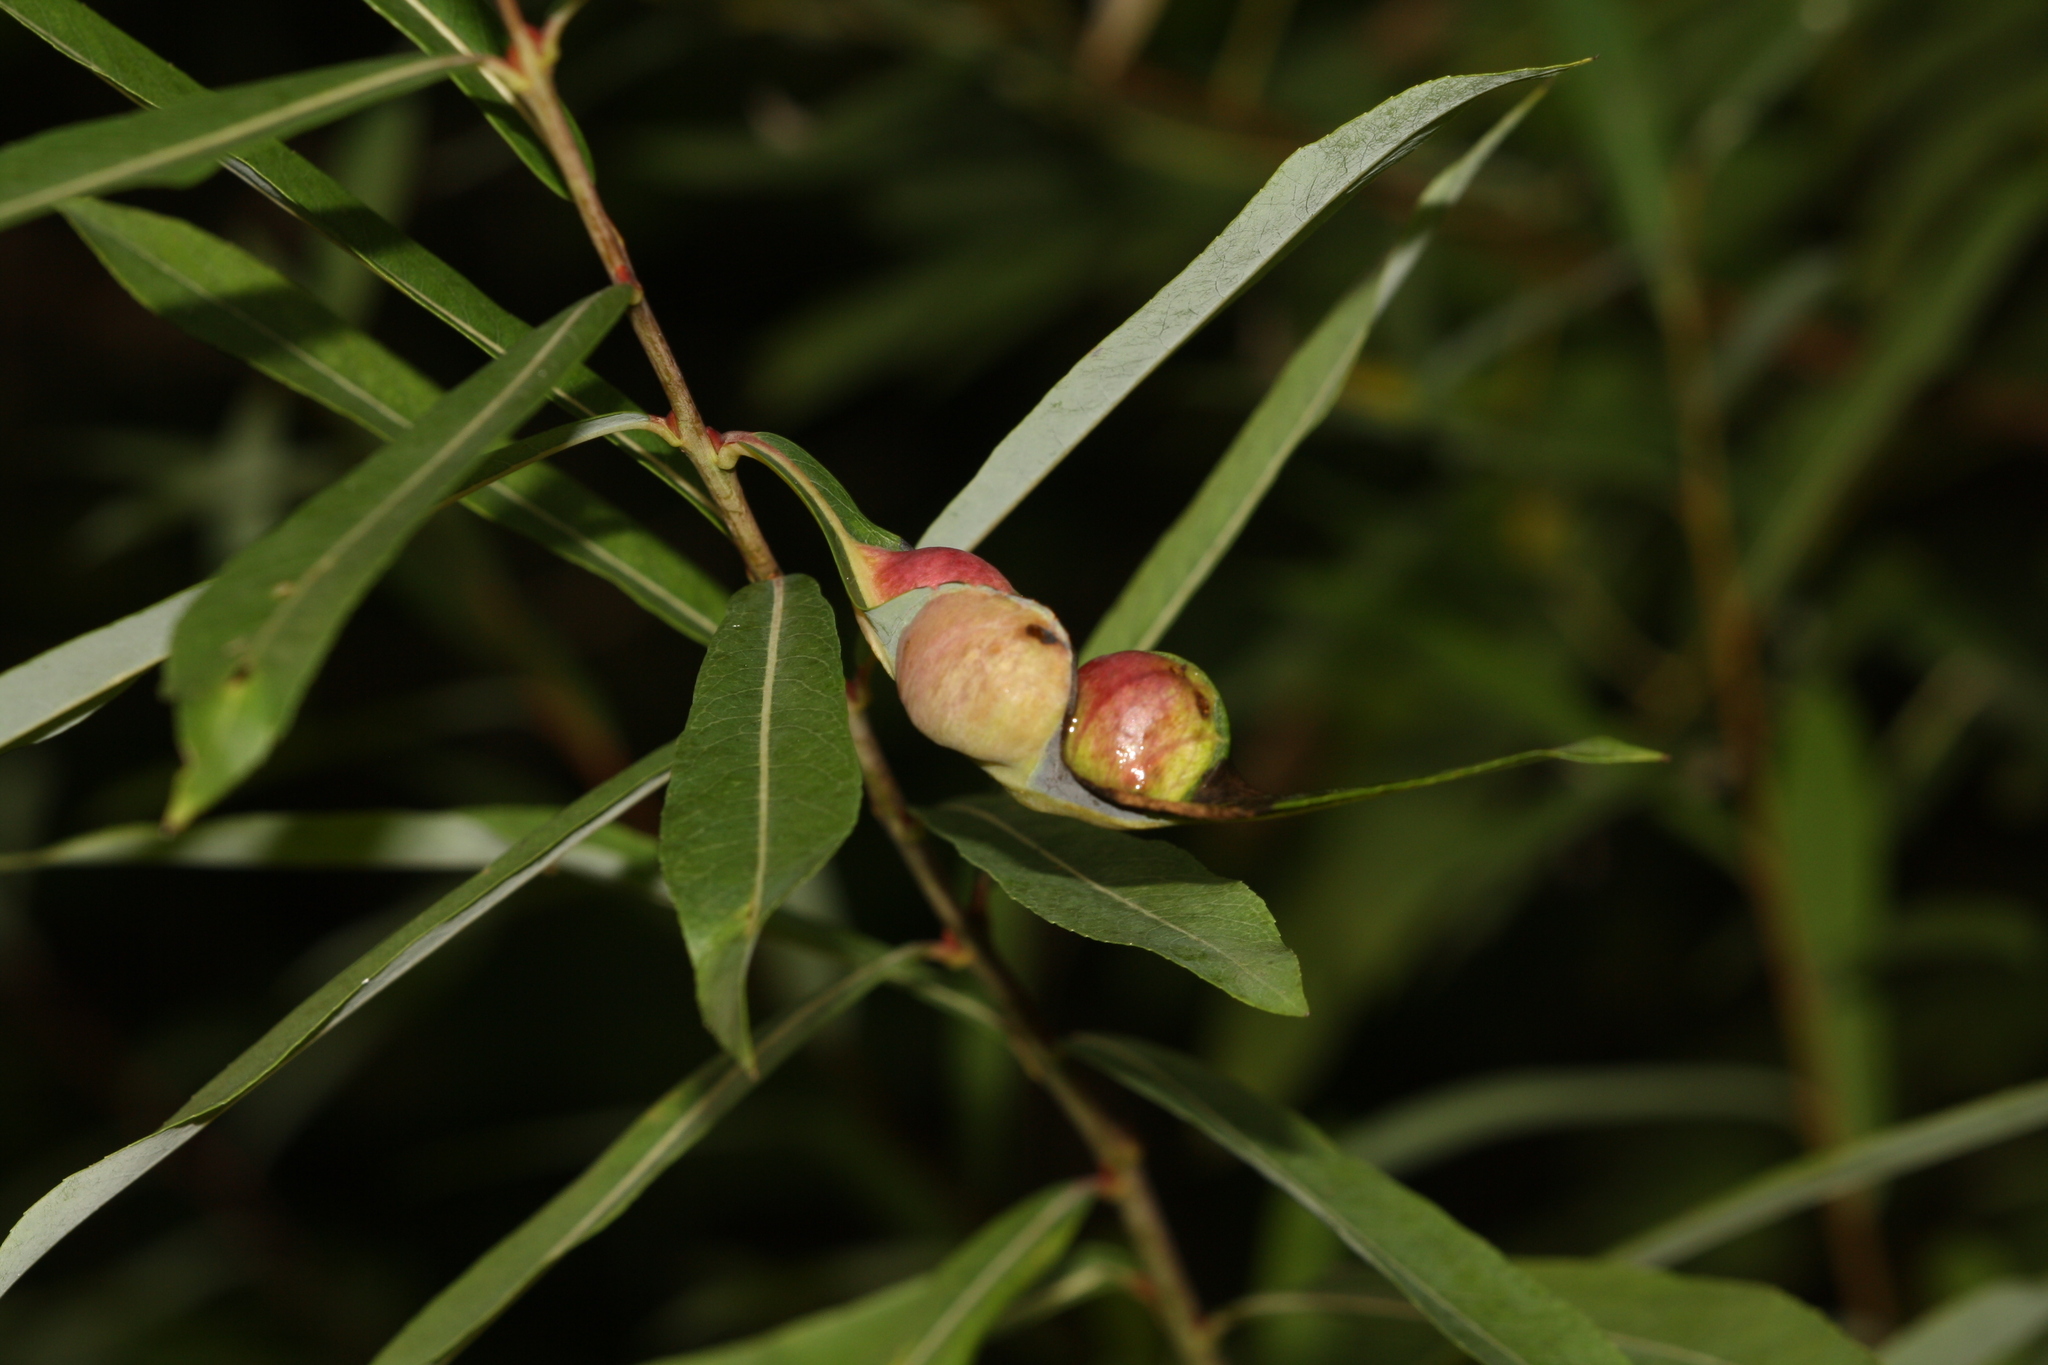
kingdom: Animalia
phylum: Arthropoda
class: Insecta
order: Hymenoptera
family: Tenthredinidae
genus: Pontania
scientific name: Pontania vesicator
